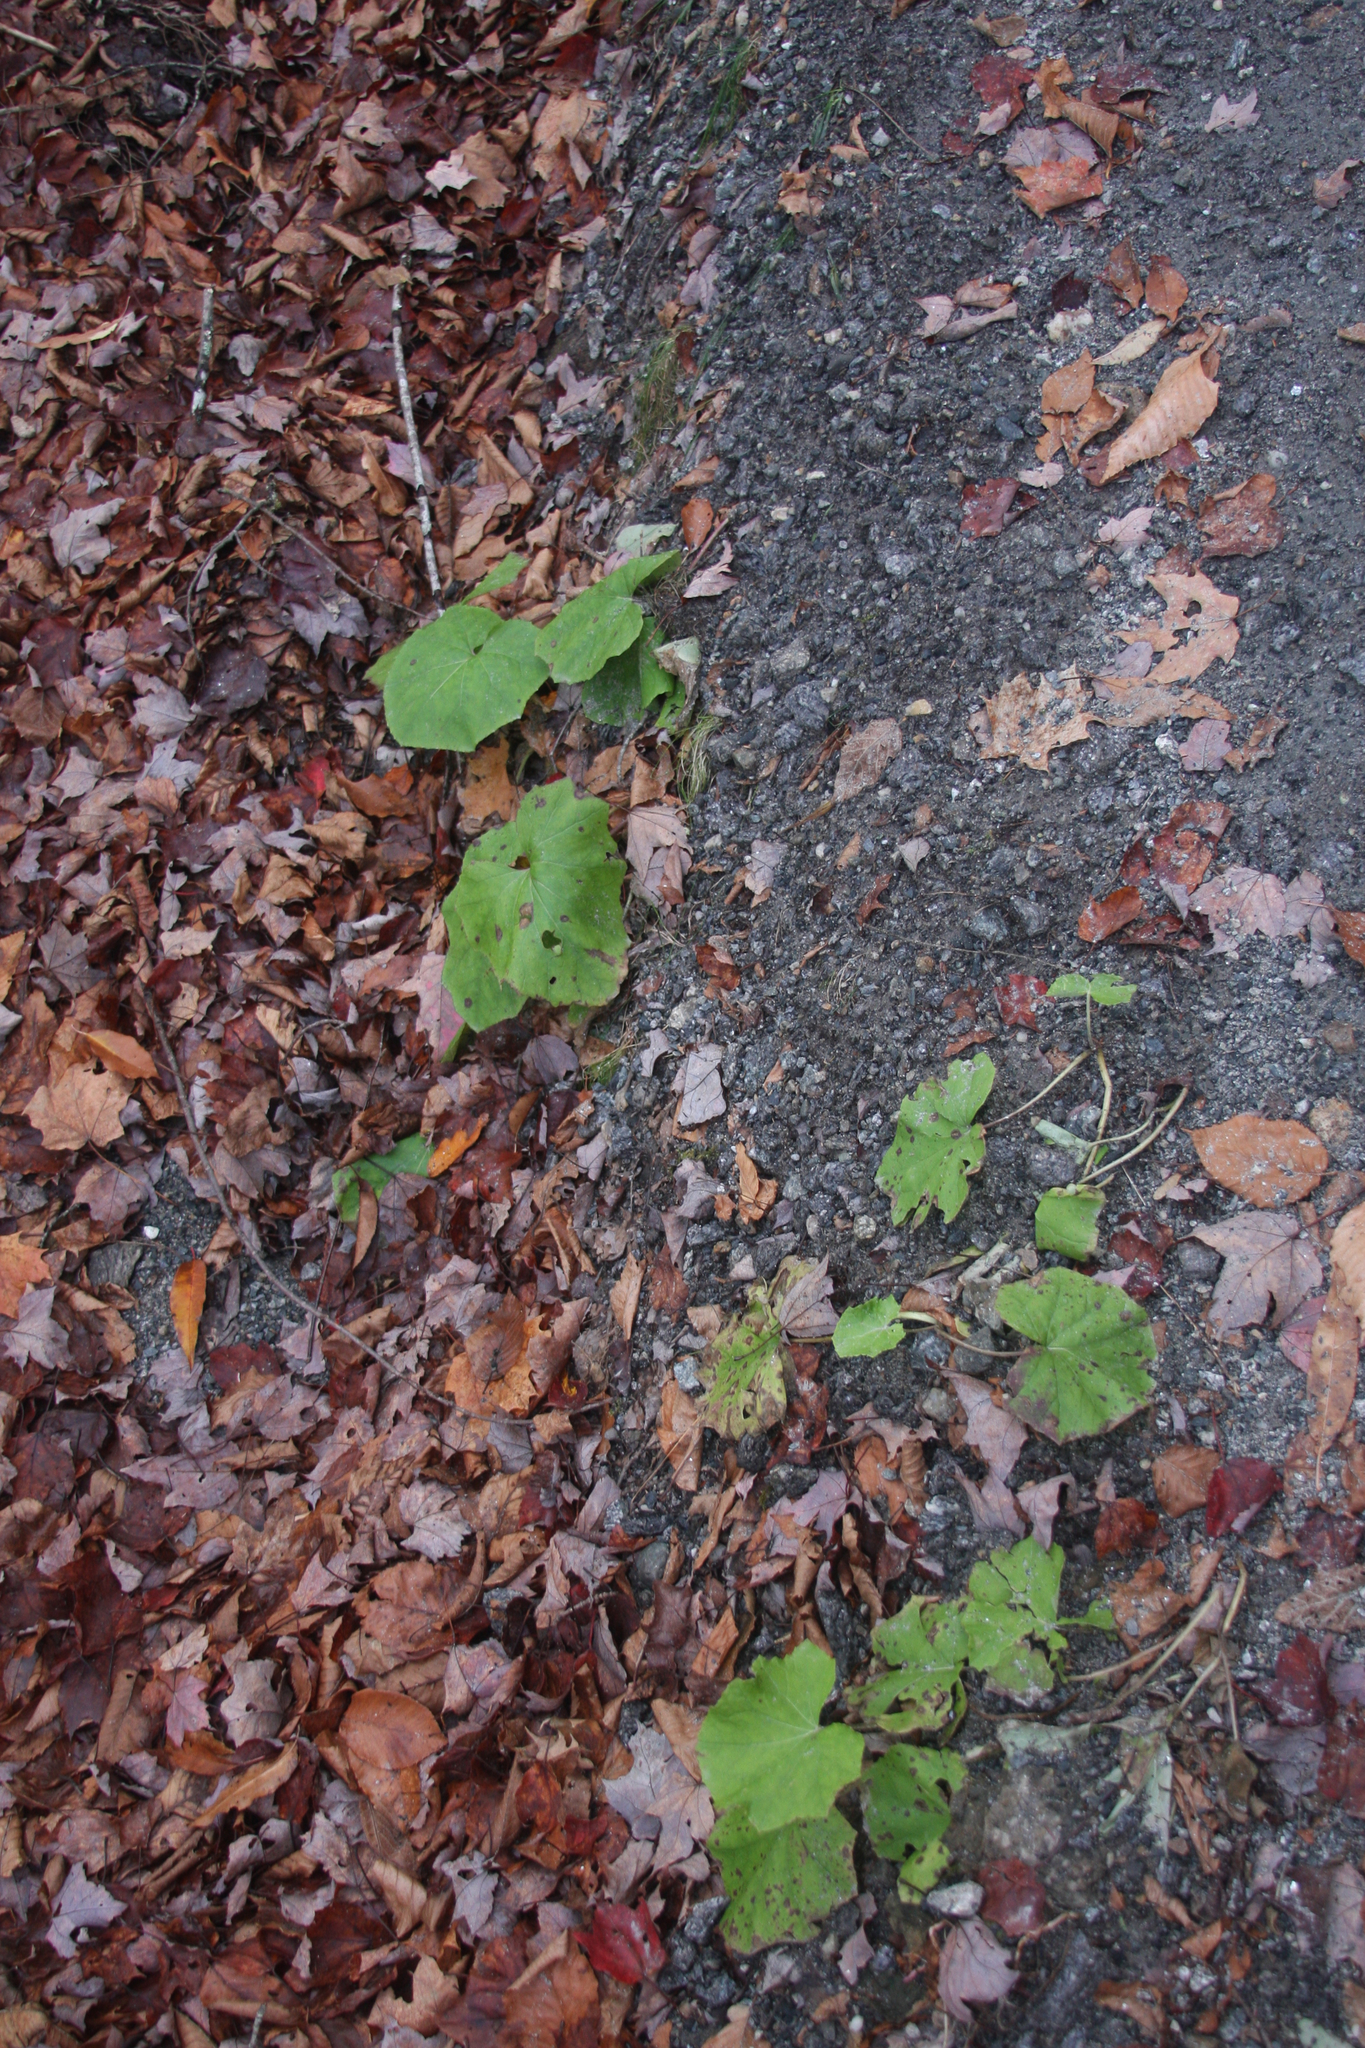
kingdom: Plantae
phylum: Tracheophyta
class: Magnoliopsida
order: Asterales
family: Asteraceae
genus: Tussilago
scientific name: Tussilago farfara
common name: Coltsfoot
